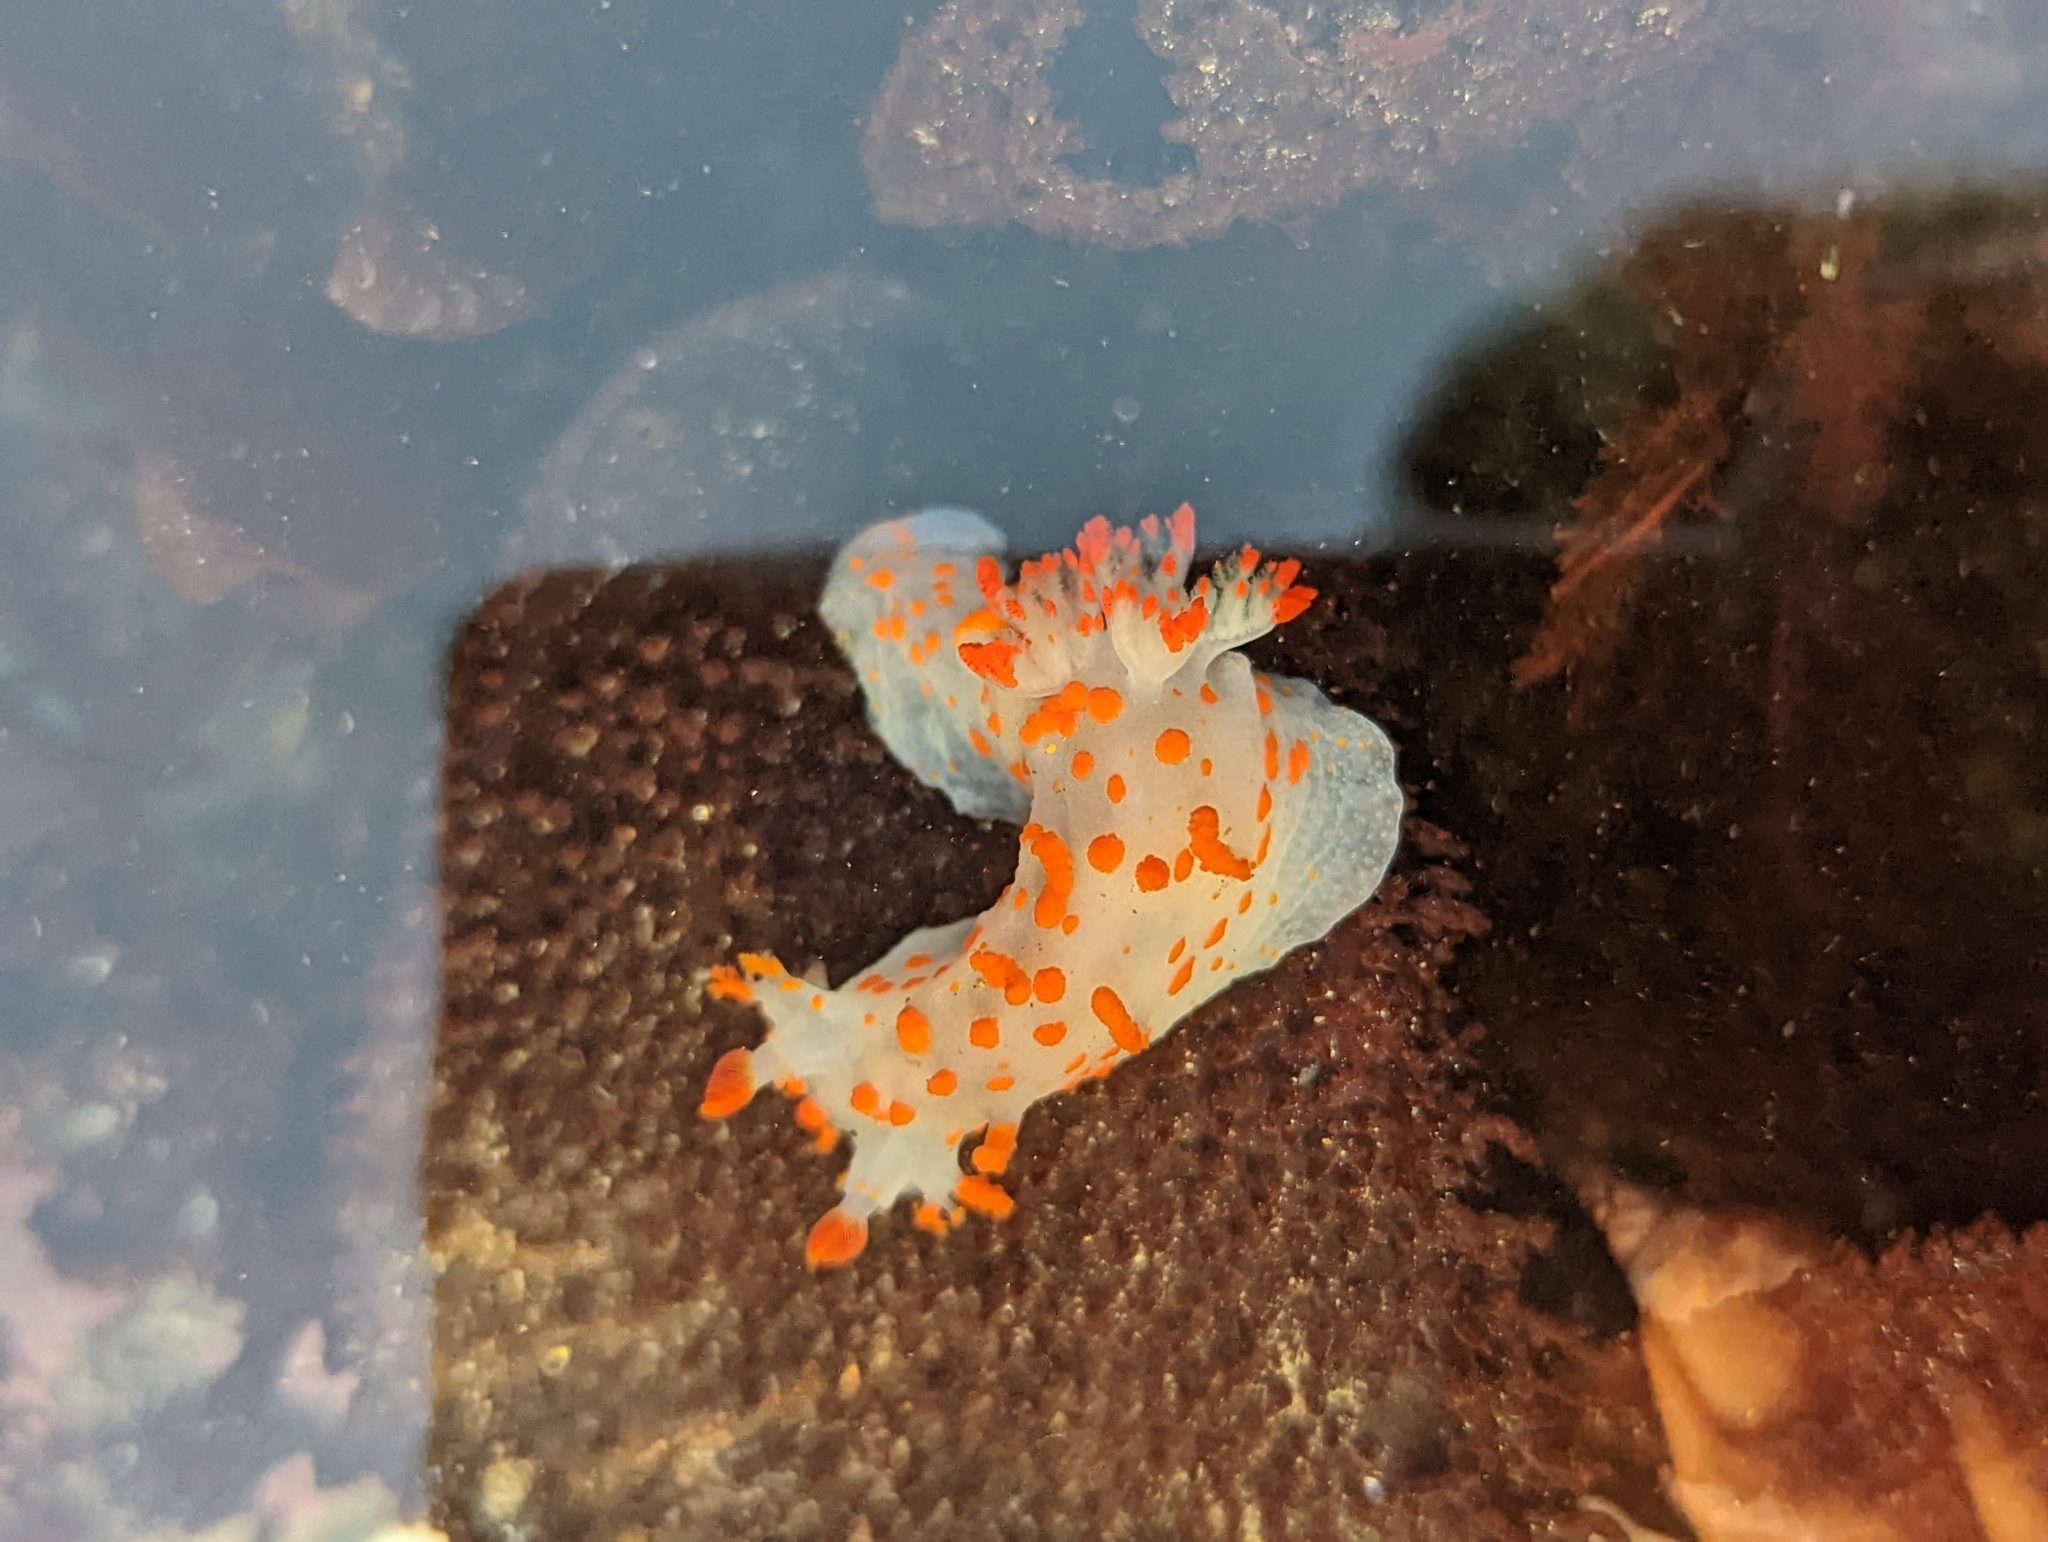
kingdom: Animalia
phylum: Mollusca
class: Gastropoda
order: Nudibranchia
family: Polyceridae
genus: Triopha
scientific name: Triopha catalinae
